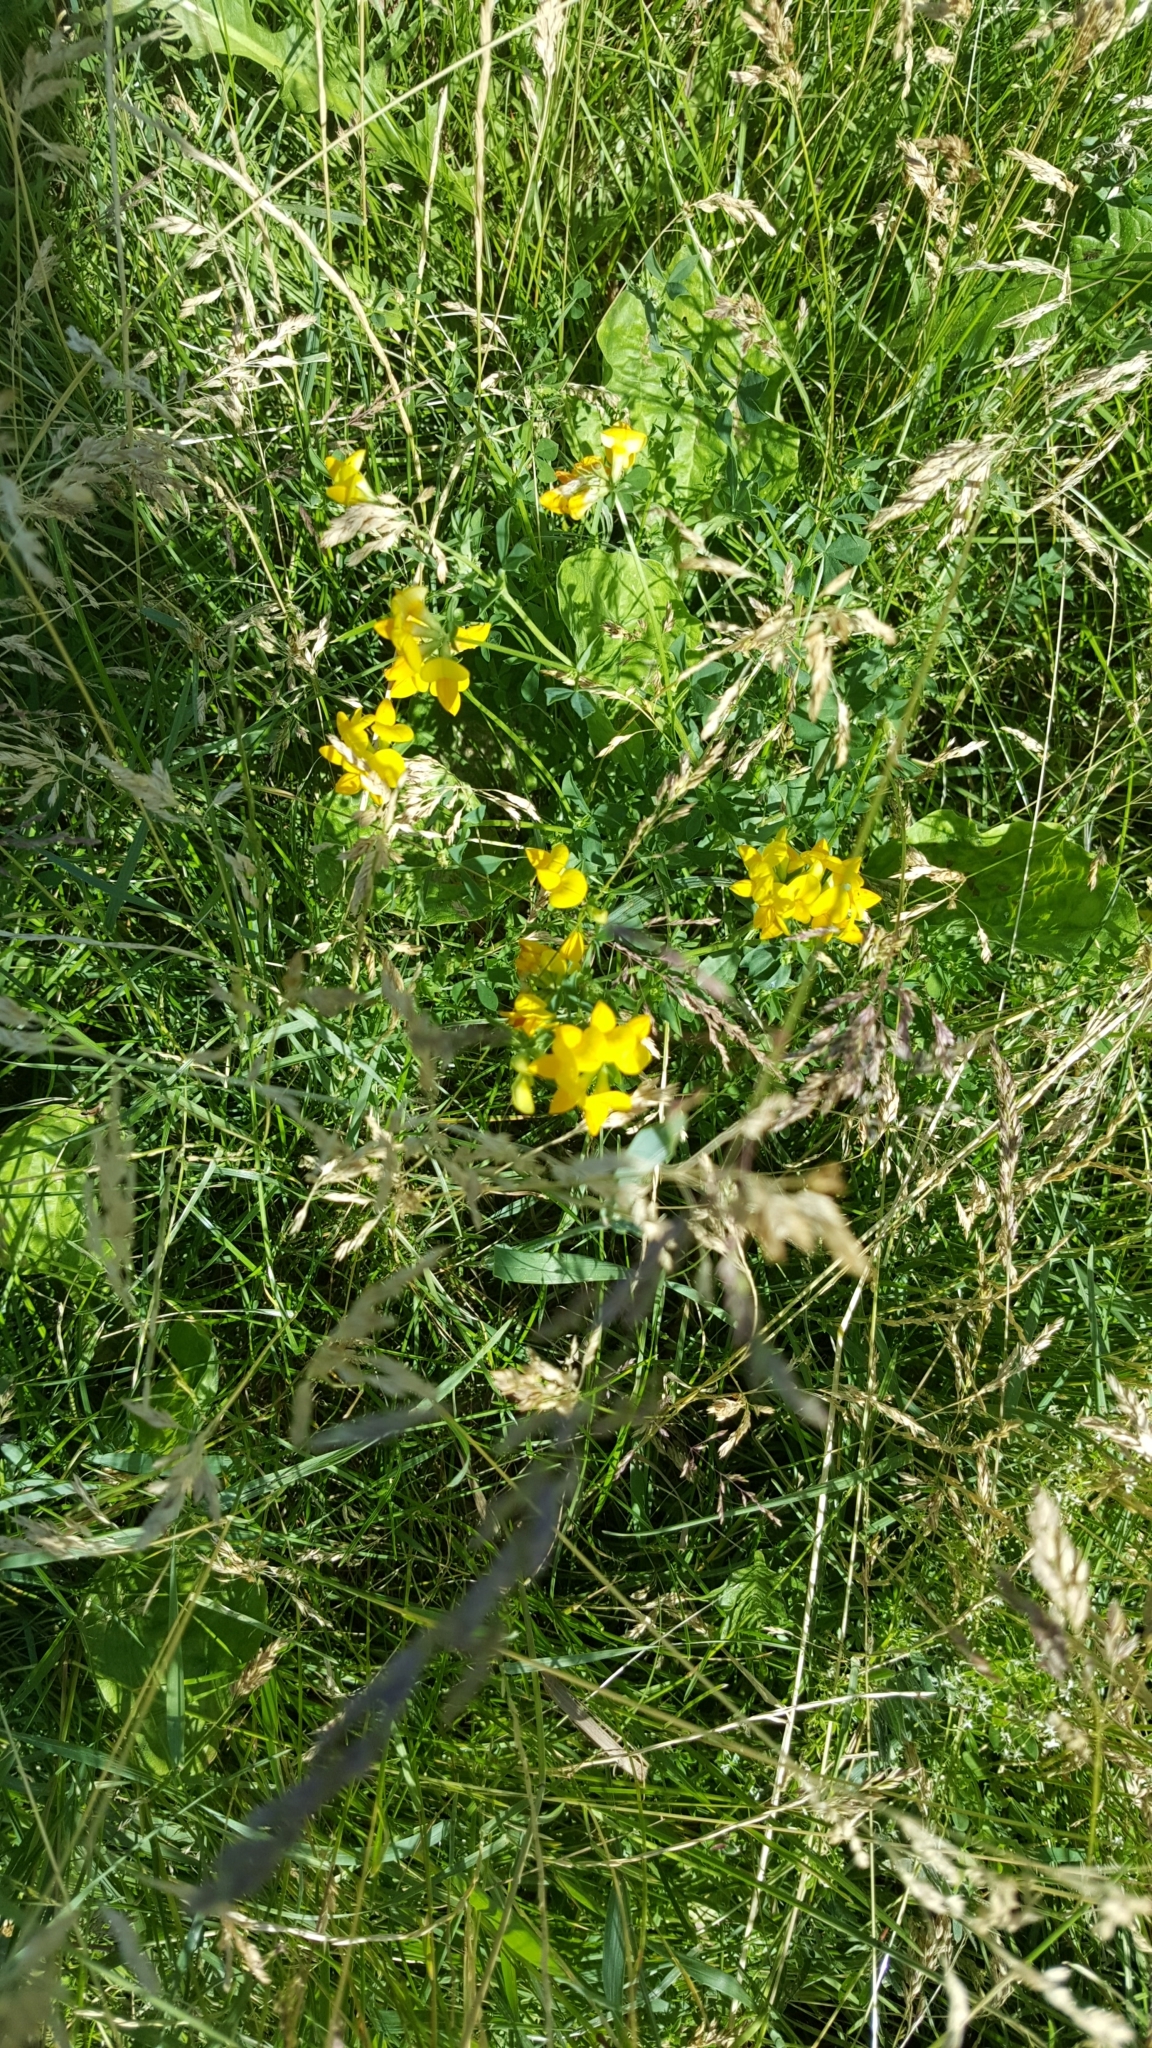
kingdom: Plantae
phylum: Tracheophyta
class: Magnoliopsida
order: Fabales
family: Fabaceae
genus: Lotus
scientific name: Lotus corniculatus
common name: Common bird's-foot-trefoil
